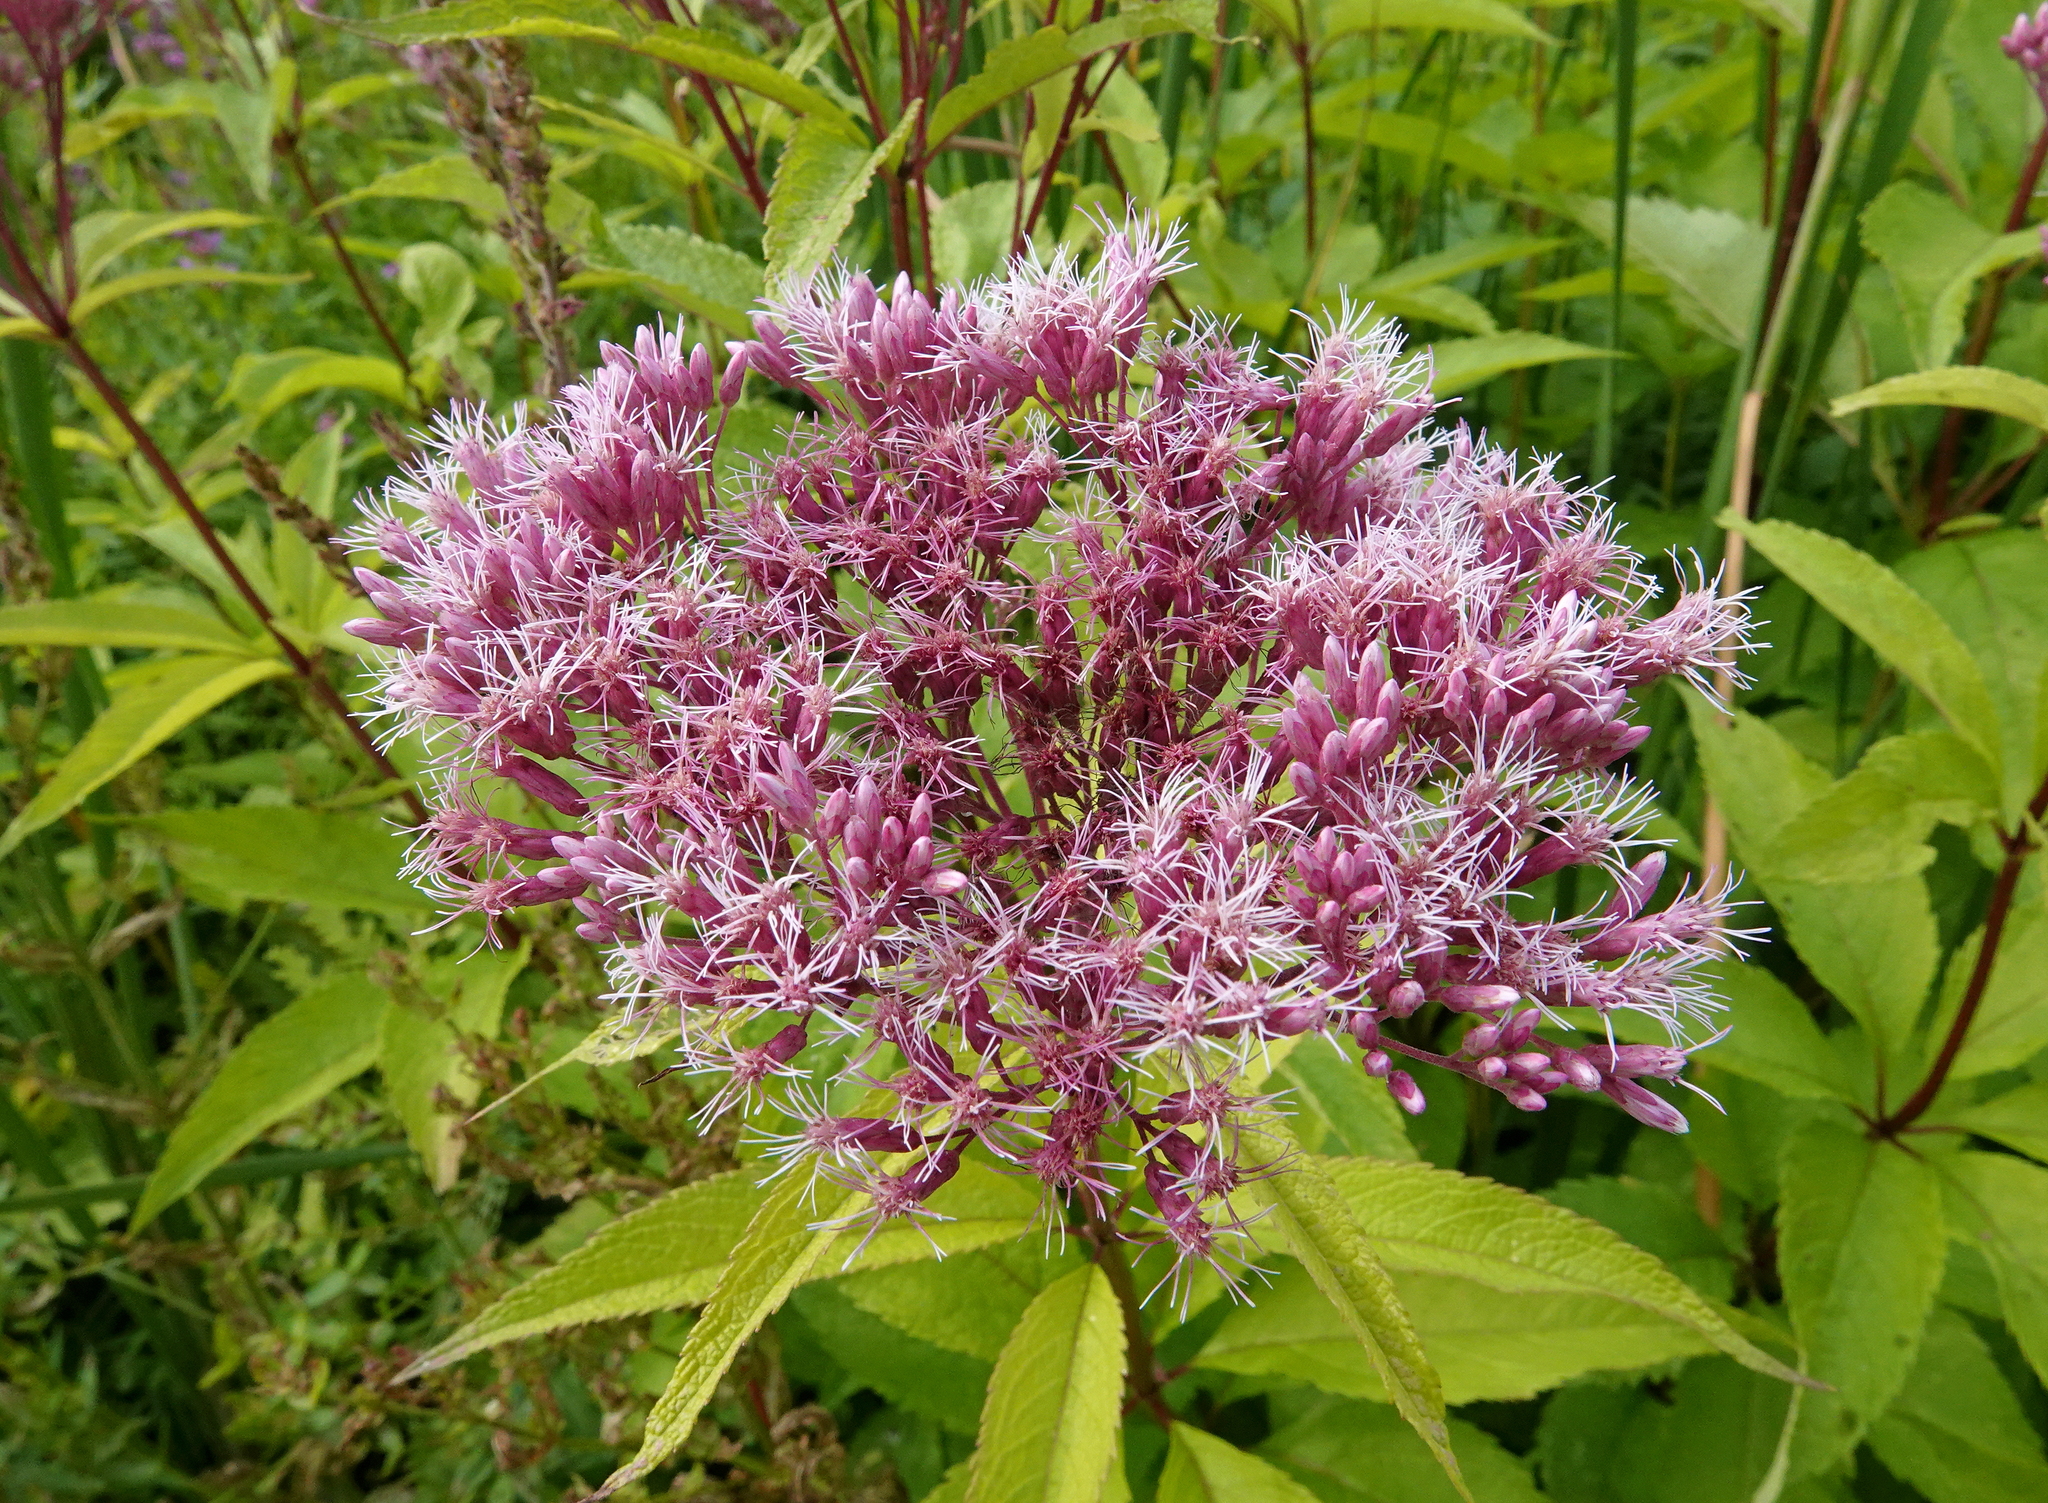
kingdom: Plantae
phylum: Tracheophyta
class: Magnoliopsida
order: Asterales
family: Asteraceae
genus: Eutrochium
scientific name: Eutrochium maculatum
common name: Spotted joe pye weed
